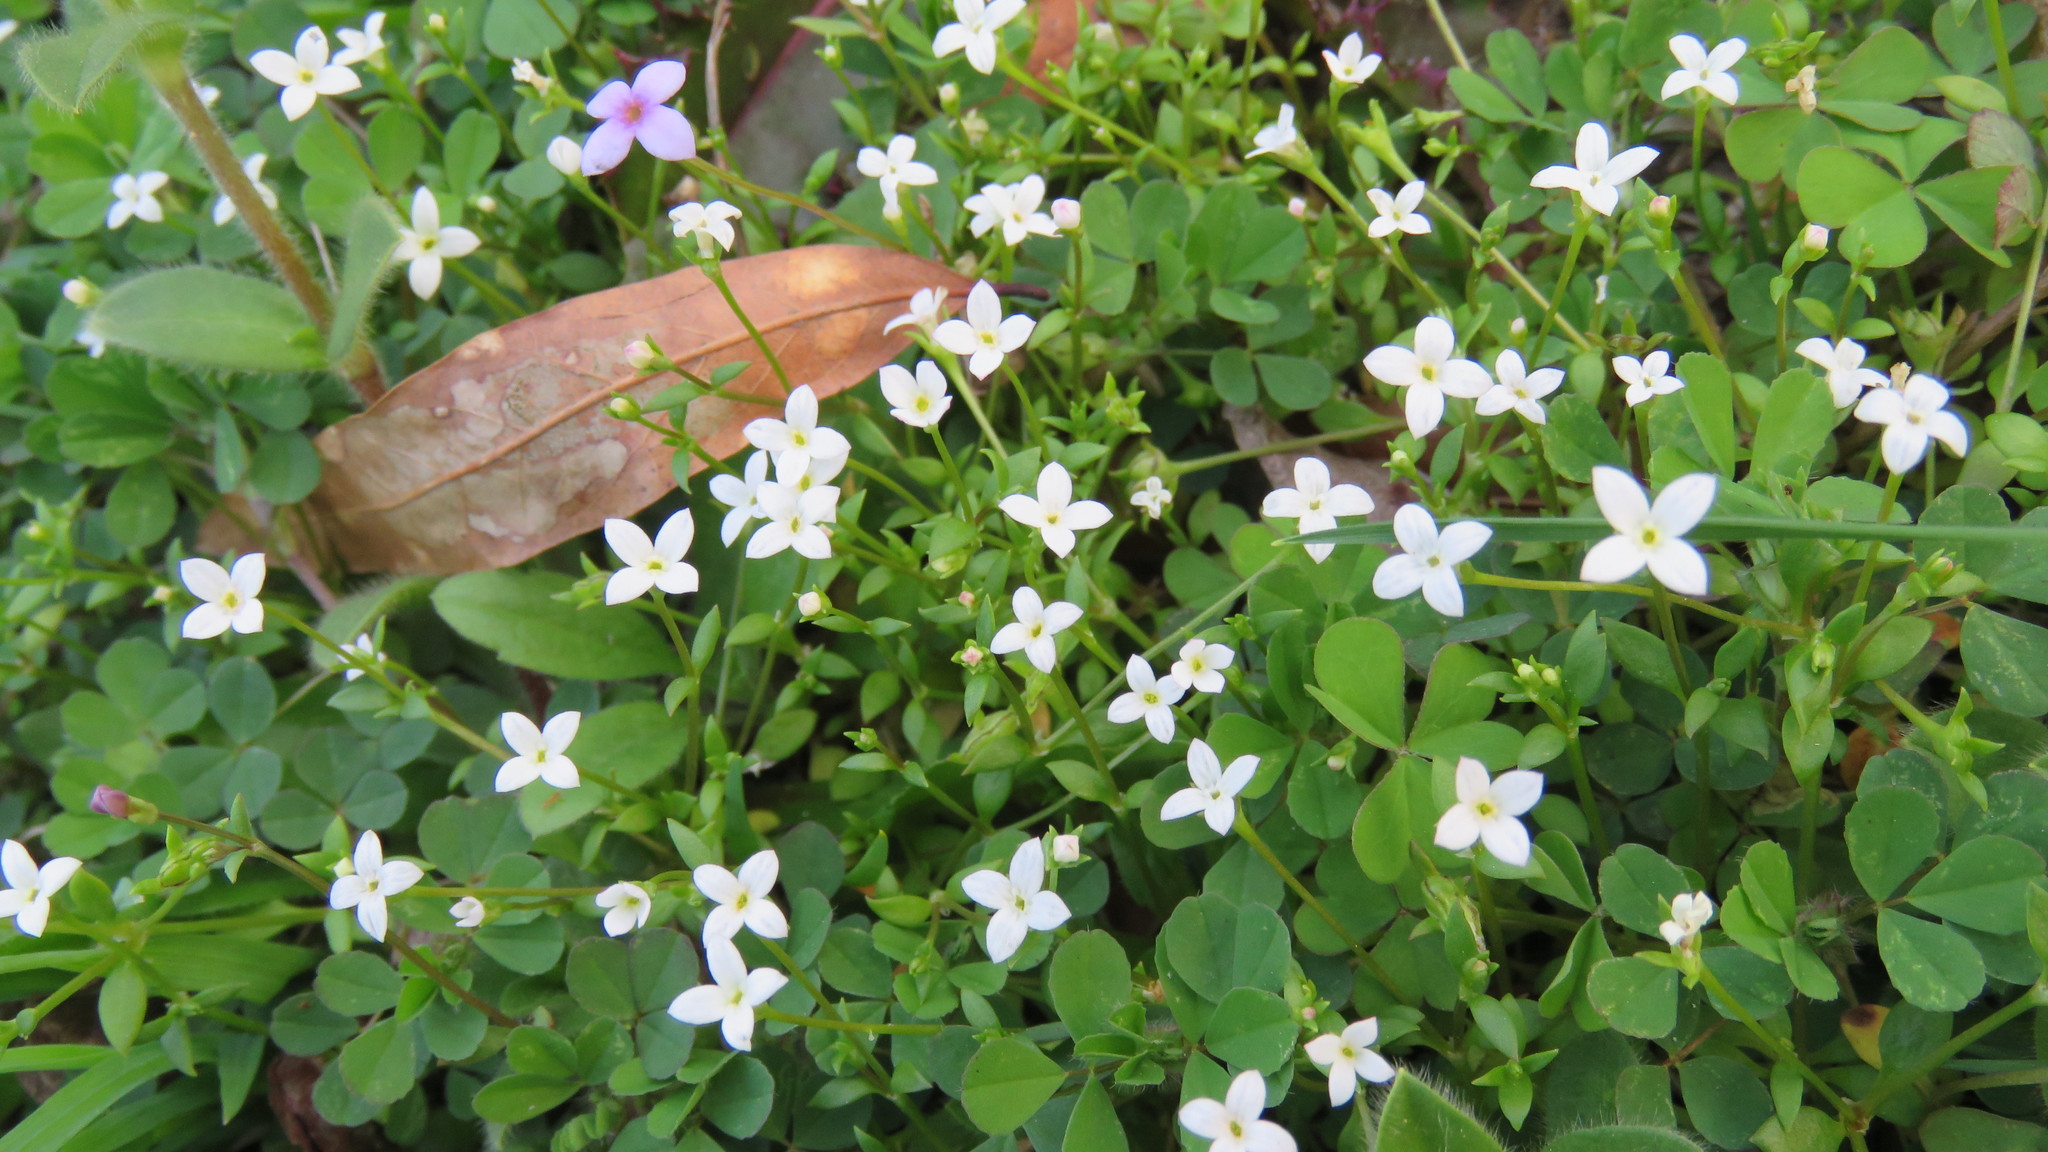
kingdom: Plantae
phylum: Tracheophyta
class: Magnoliopsida
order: Gentianales
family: Rubiaceae
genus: Houstonia
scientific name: Houstonia micrantha
